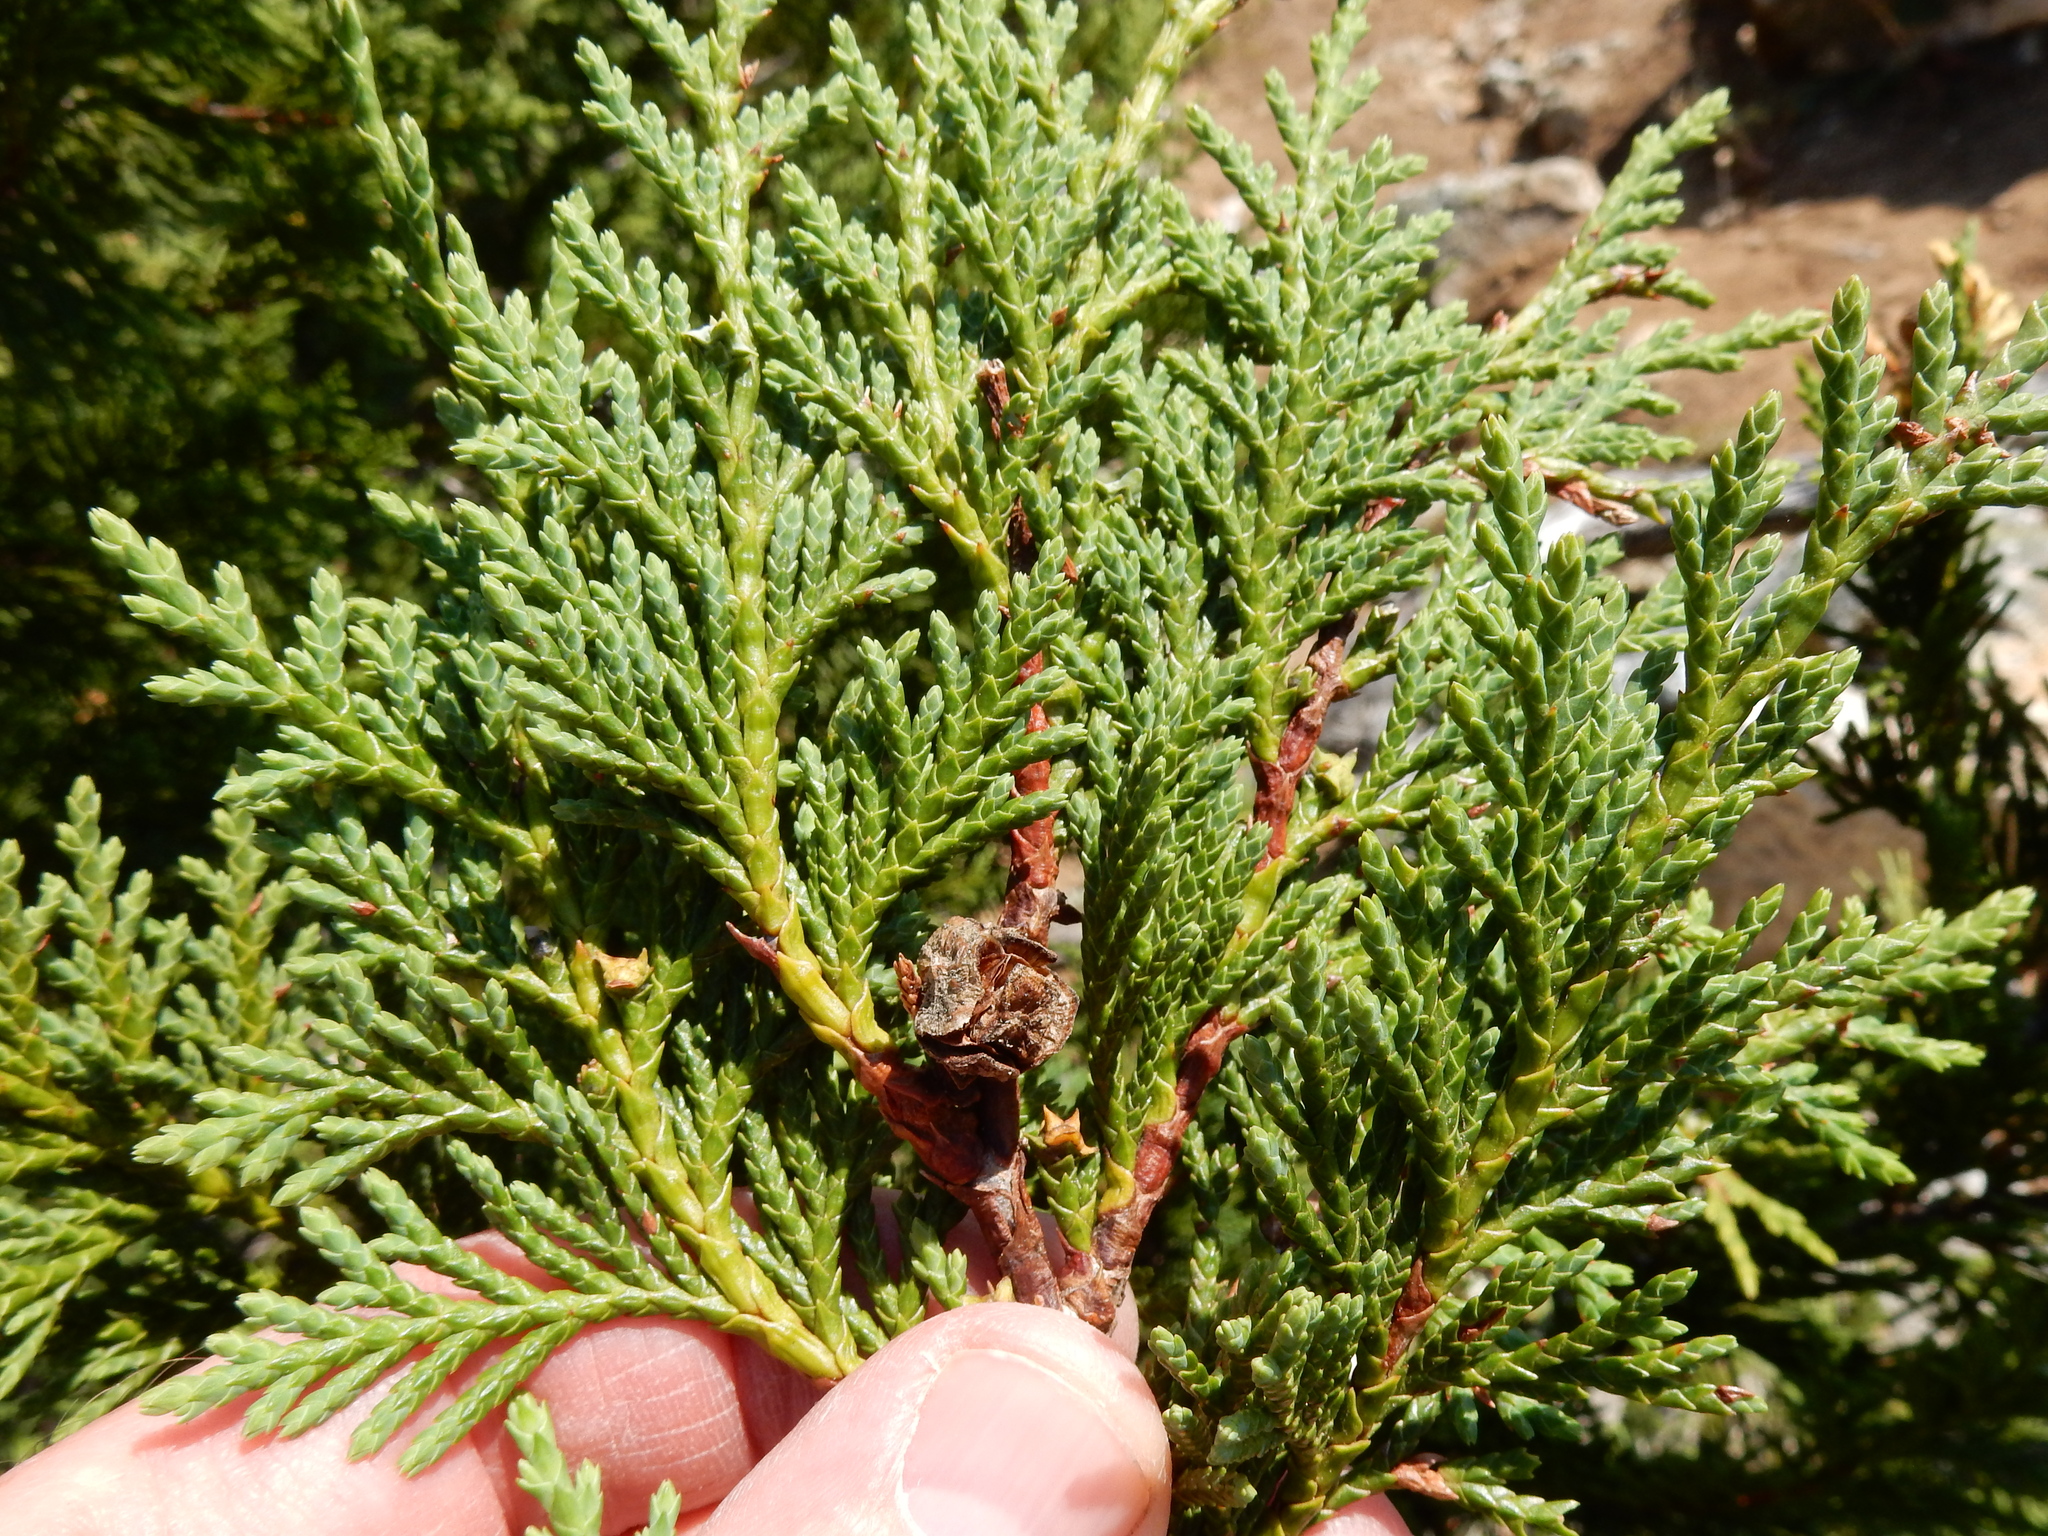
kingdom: Plantae
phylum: Tracheophyta
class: Pinopsida
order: Pinales
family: Cupressaceae
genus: Xanthocyparis
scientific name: Xanthocyparis nootkatensis
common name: Nootka cypress
